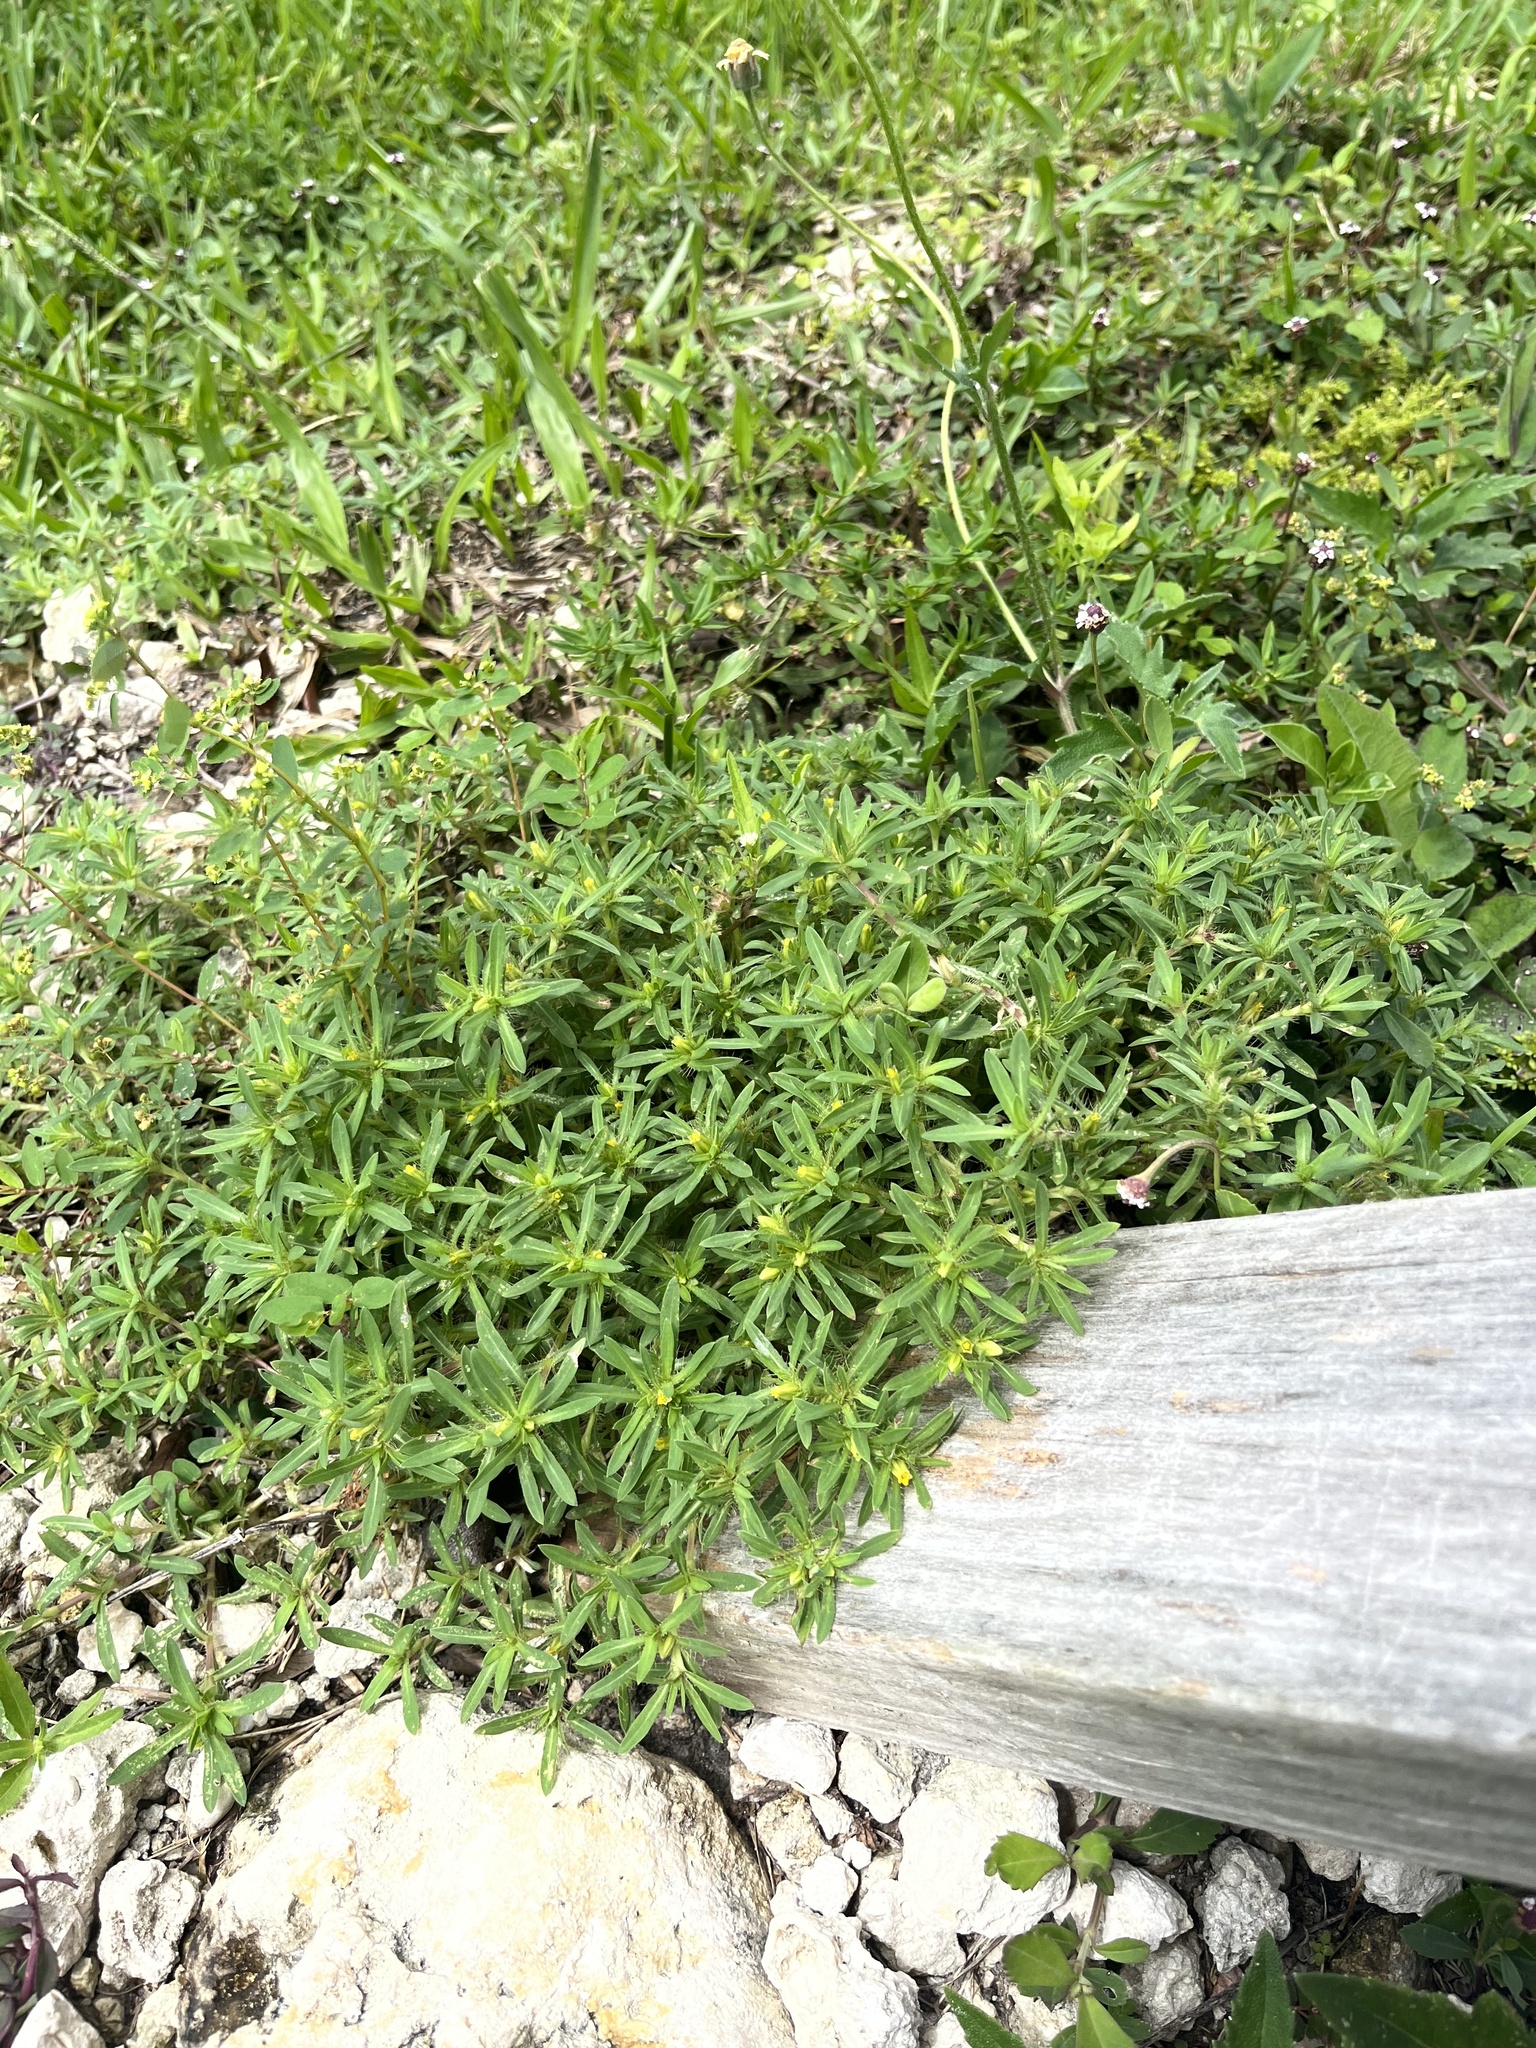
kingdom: Plantae
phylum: Tracheophyta
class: Magnoliopsida
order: Asterales
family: Asteraceae
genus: Pectis
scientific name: Pectis prostrata
